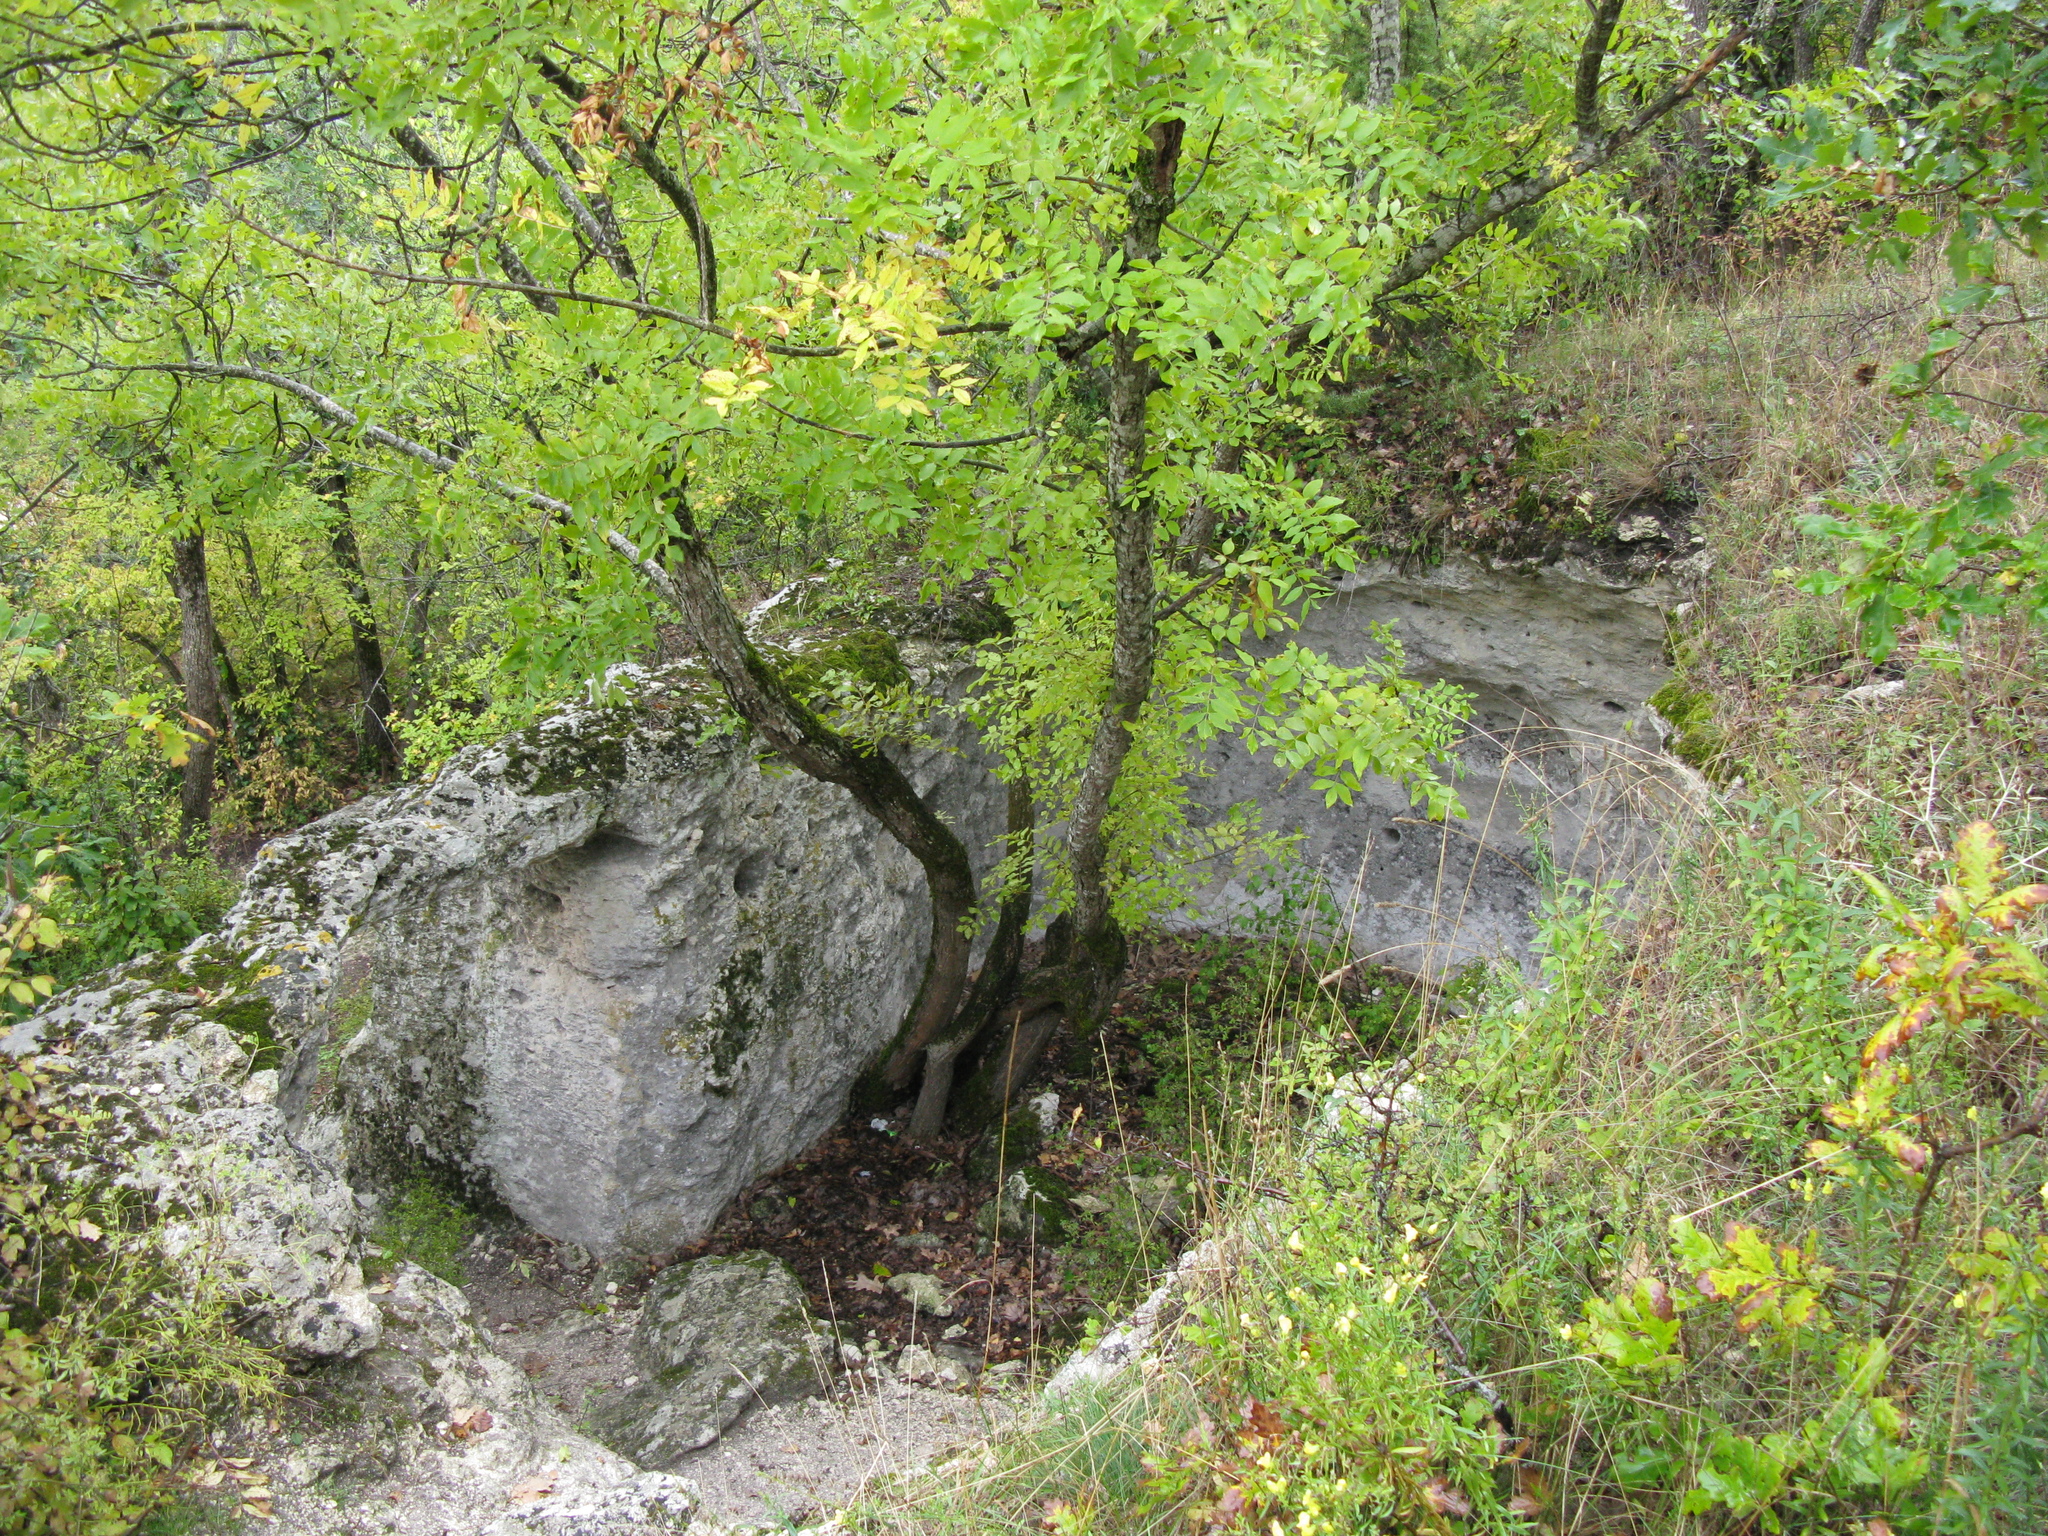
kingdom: Plantae
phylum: Tracheophyta
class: Magnoliopsida
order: Lamiales
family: Oleaceae
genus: Fraxinus
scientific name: Fraxinus angustifolia
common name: Narrow-leafed ash
